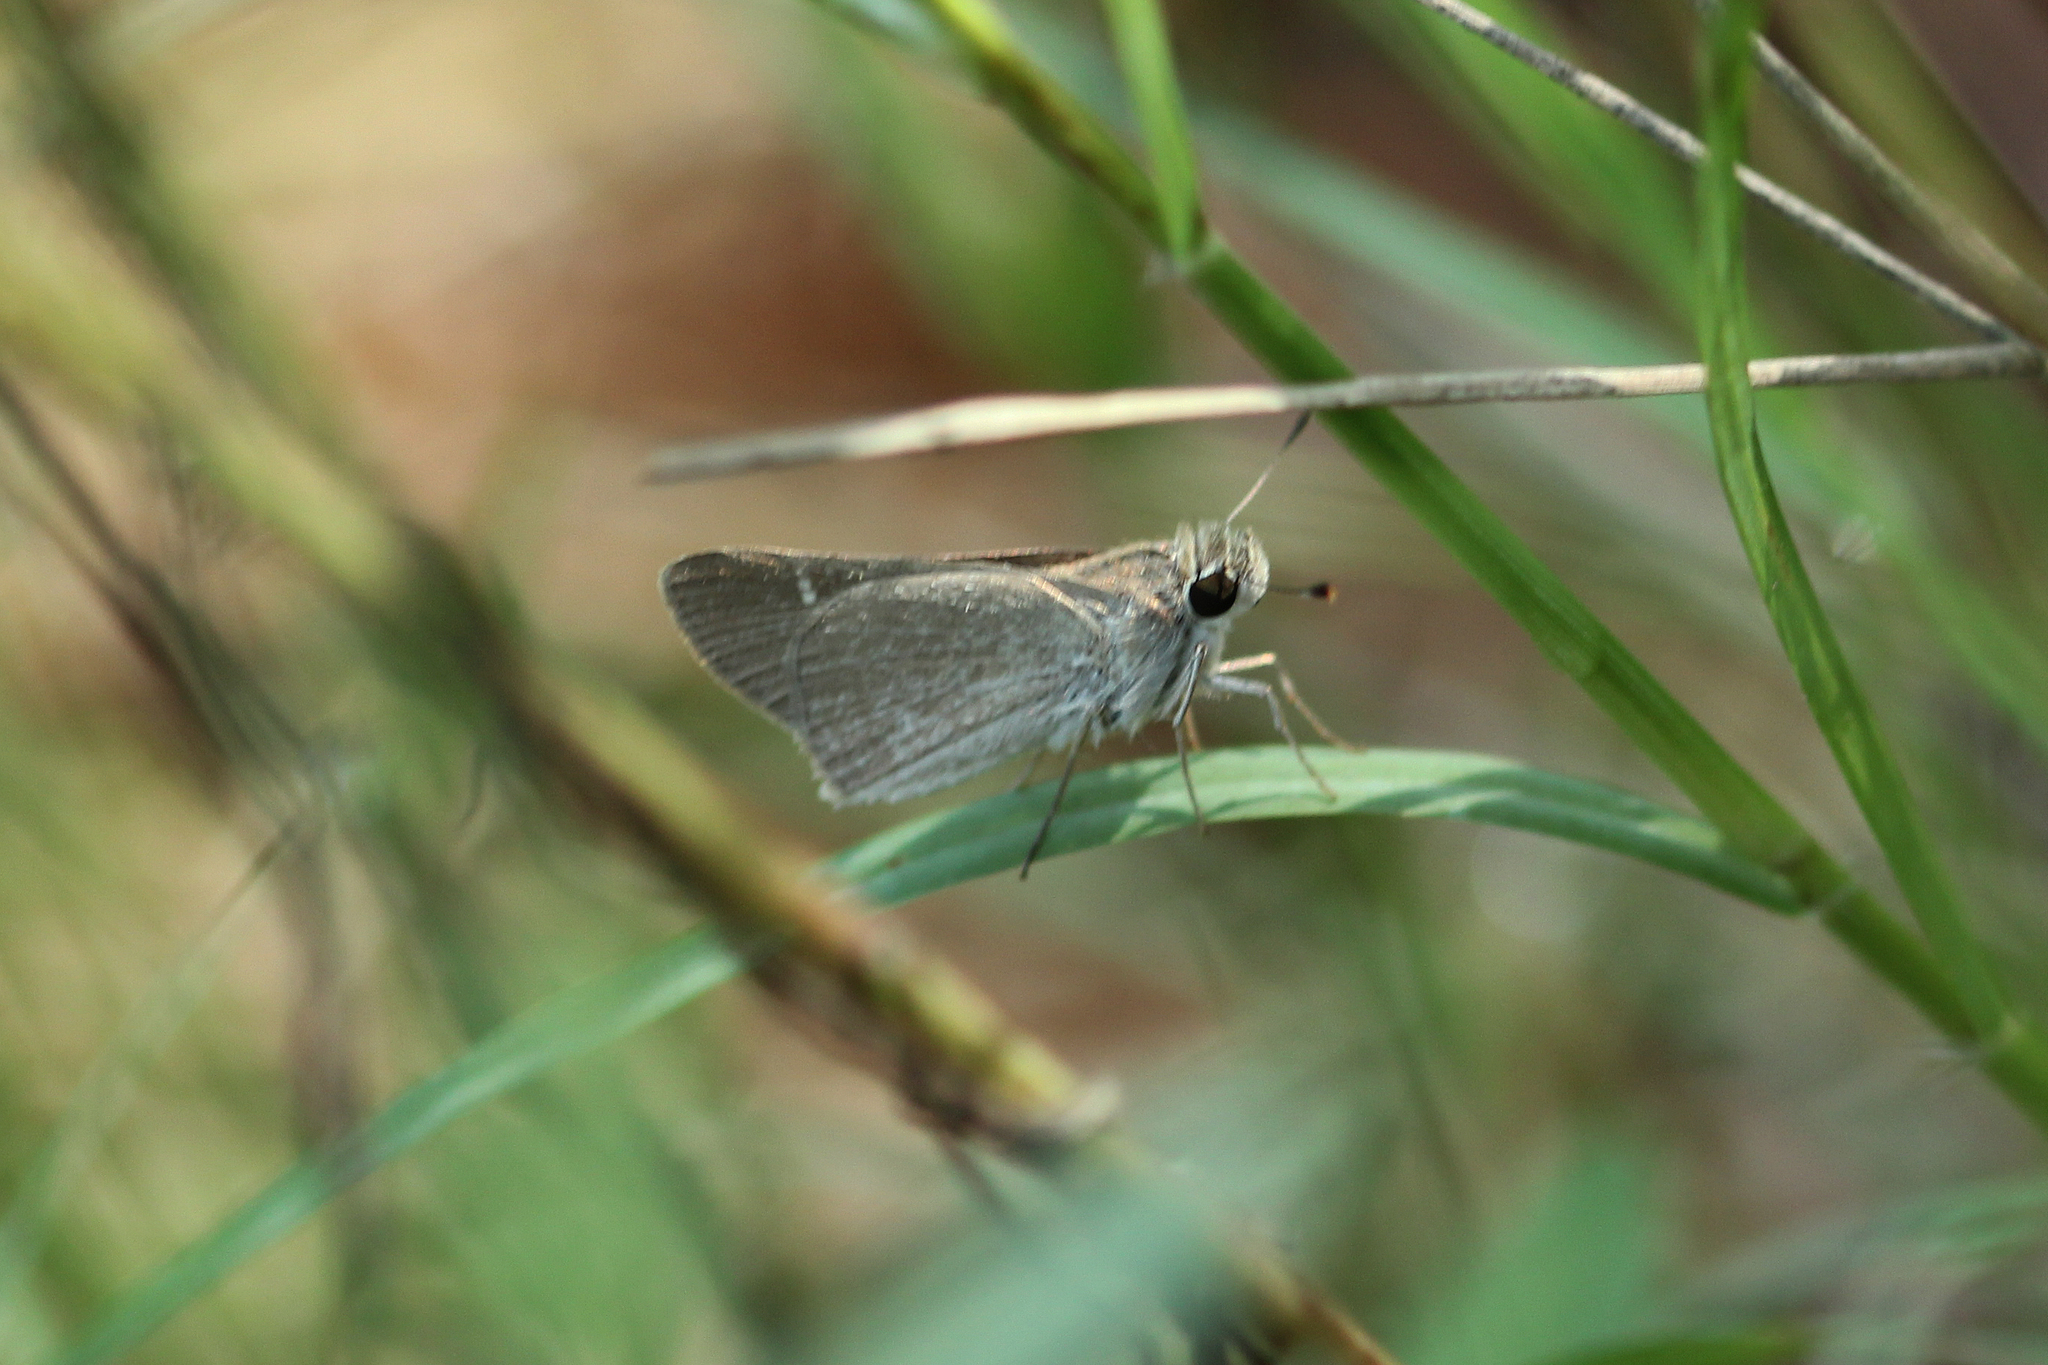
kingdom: Animalia
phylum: Arthropoda
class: Insecta
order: Lepidoptera
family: Hesperiidae
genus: Lerodea
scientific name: Lerodea eufala
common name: Eufala skipper
